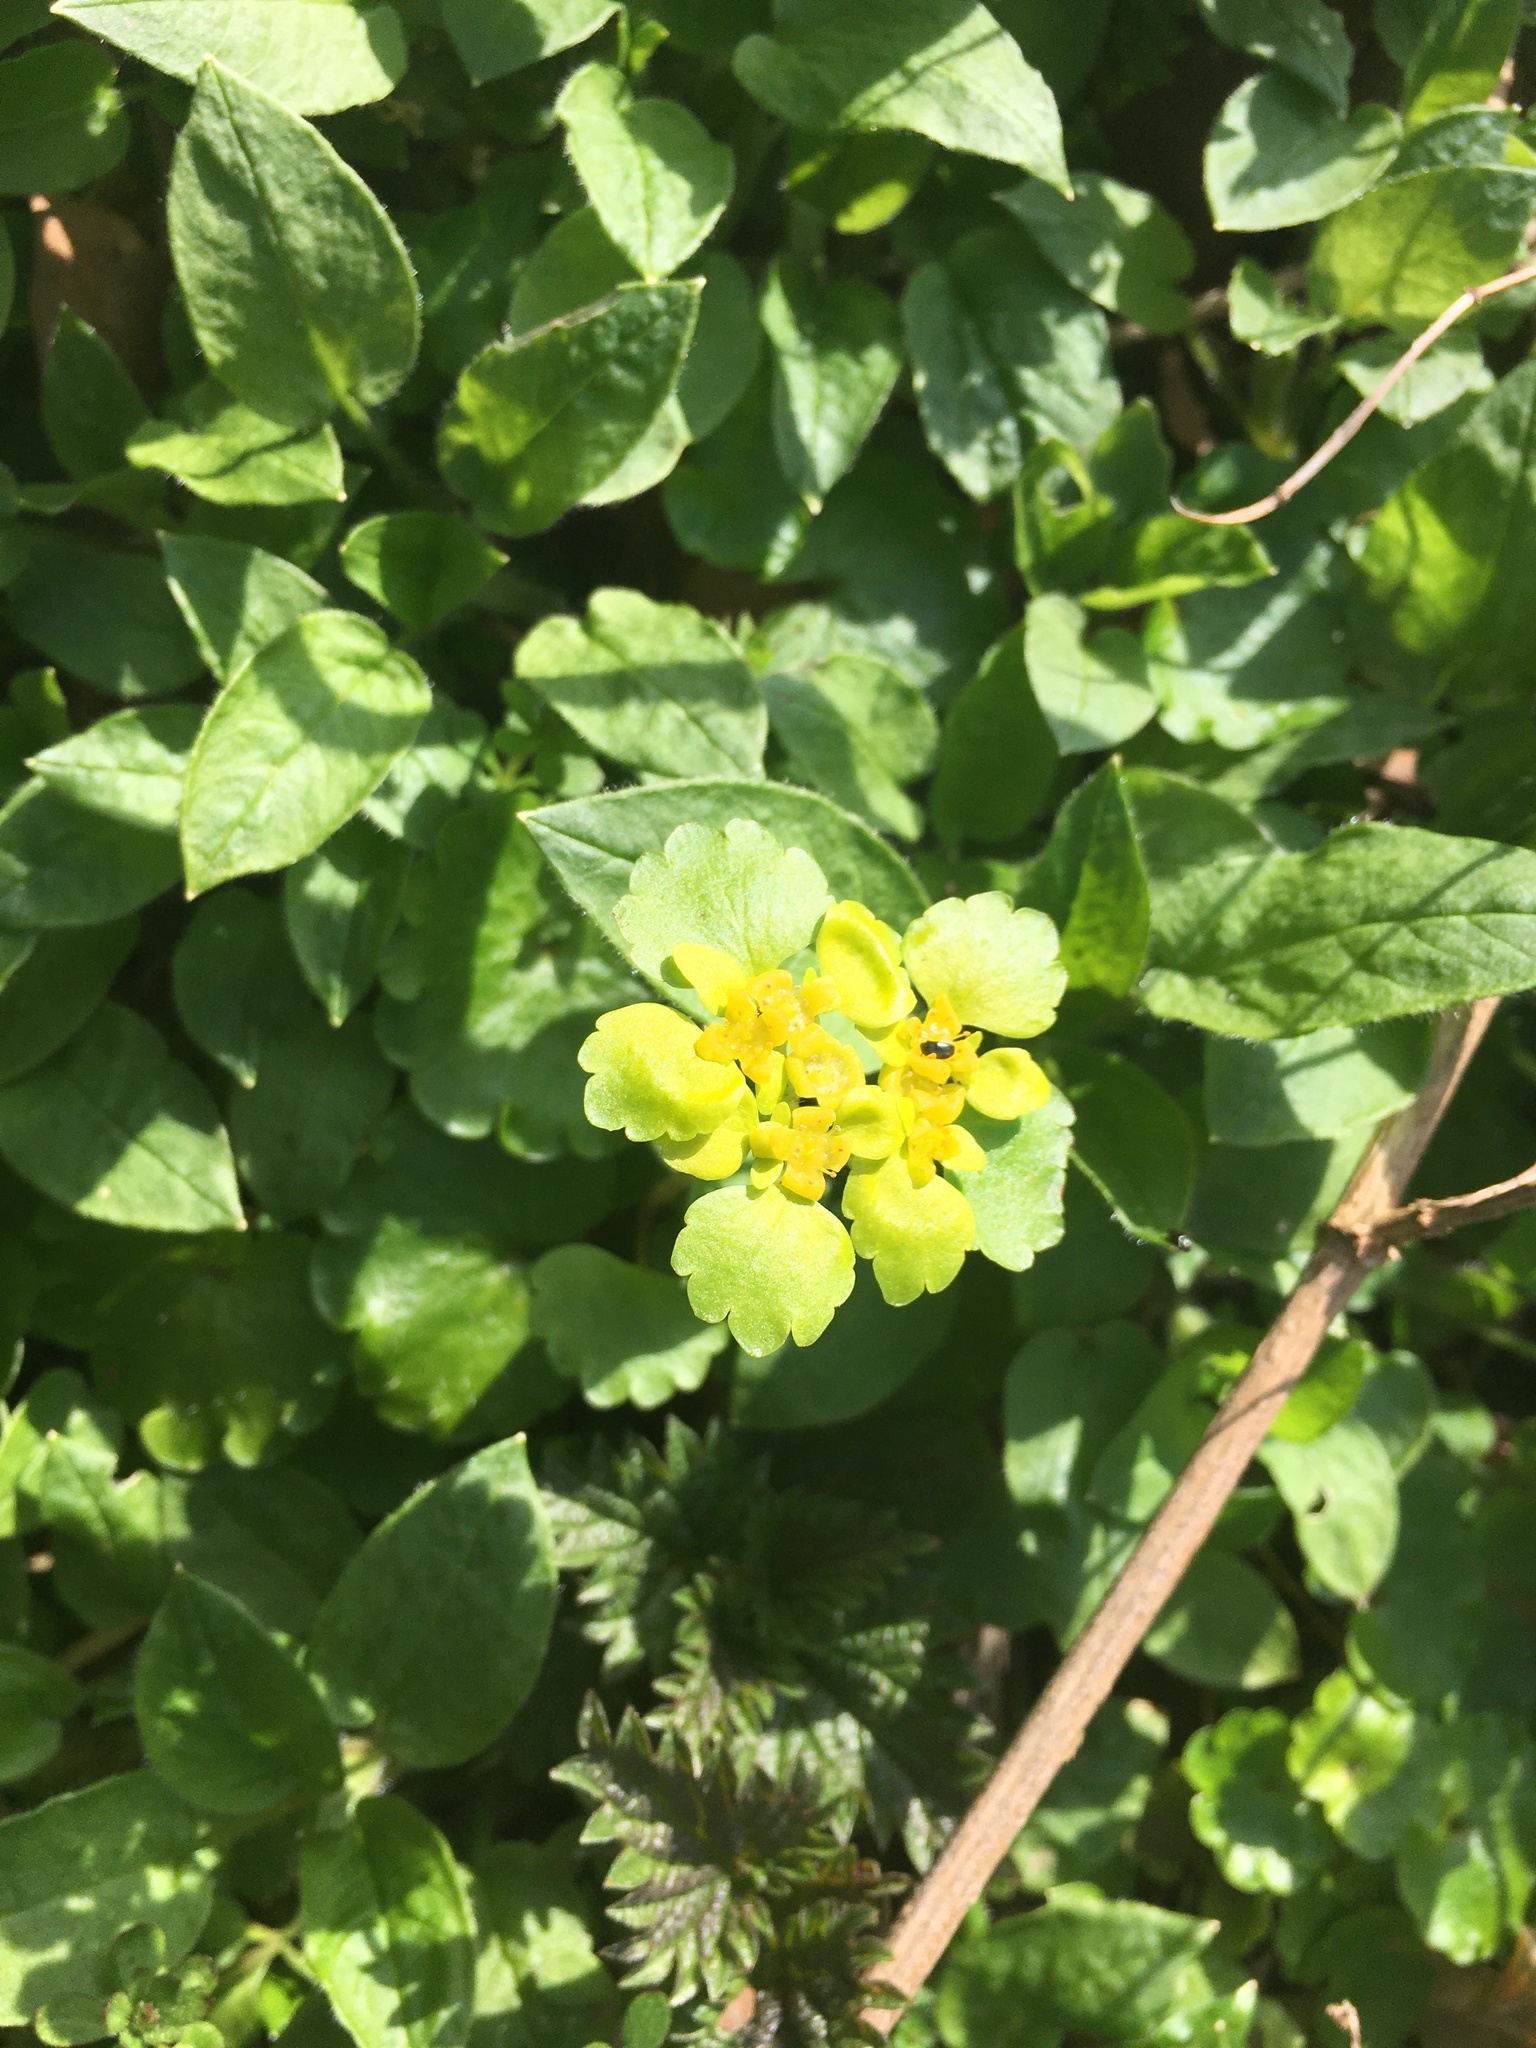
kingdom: Plantae
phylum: Tracheophyta
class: Magnoliopsida
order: Saxifragales
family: Saxifragaceae
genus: Chrysosplenium
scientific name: Chrysosplenium alternifolium
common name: Alternate-leaved golden-saxifrage
